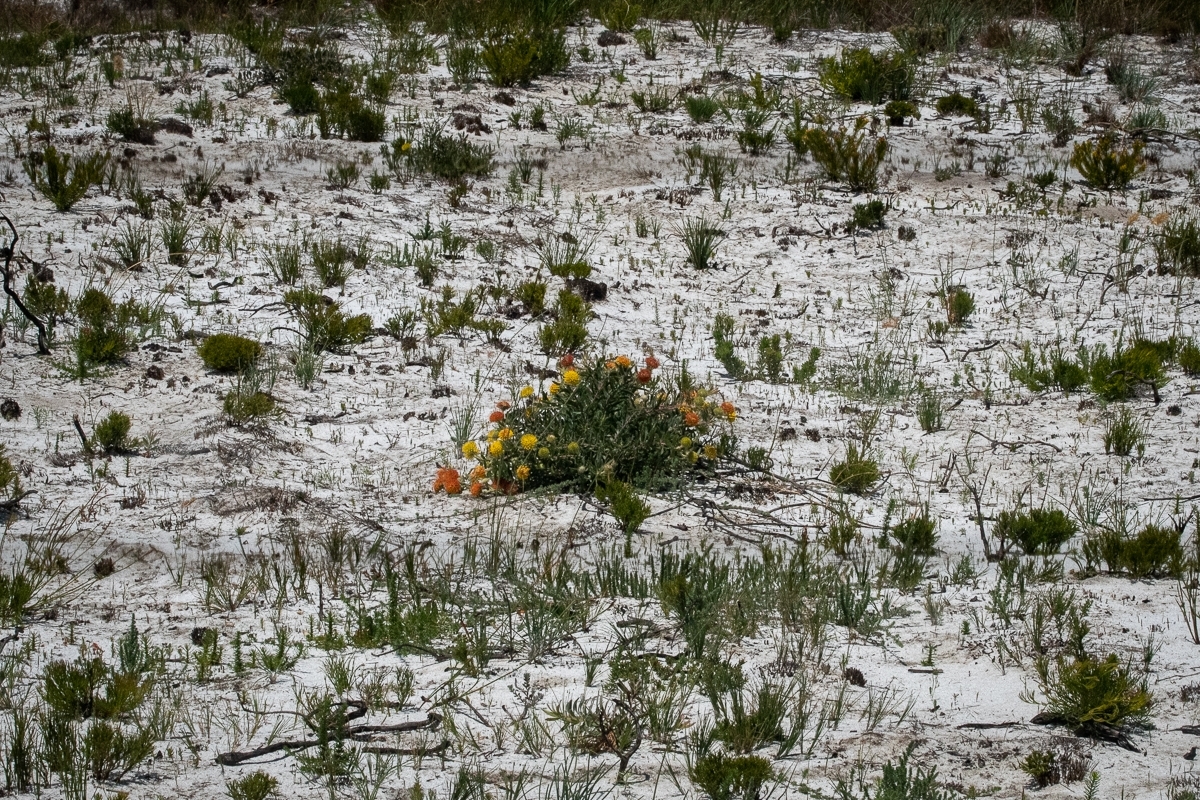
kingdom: Plantae
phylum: Tracheophyta
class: Magnoliopsida
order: Proteales
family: Proteaceae
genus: Leucospermum
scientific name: Leucospermum prostratum
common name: Yellow-trailing pincushion
